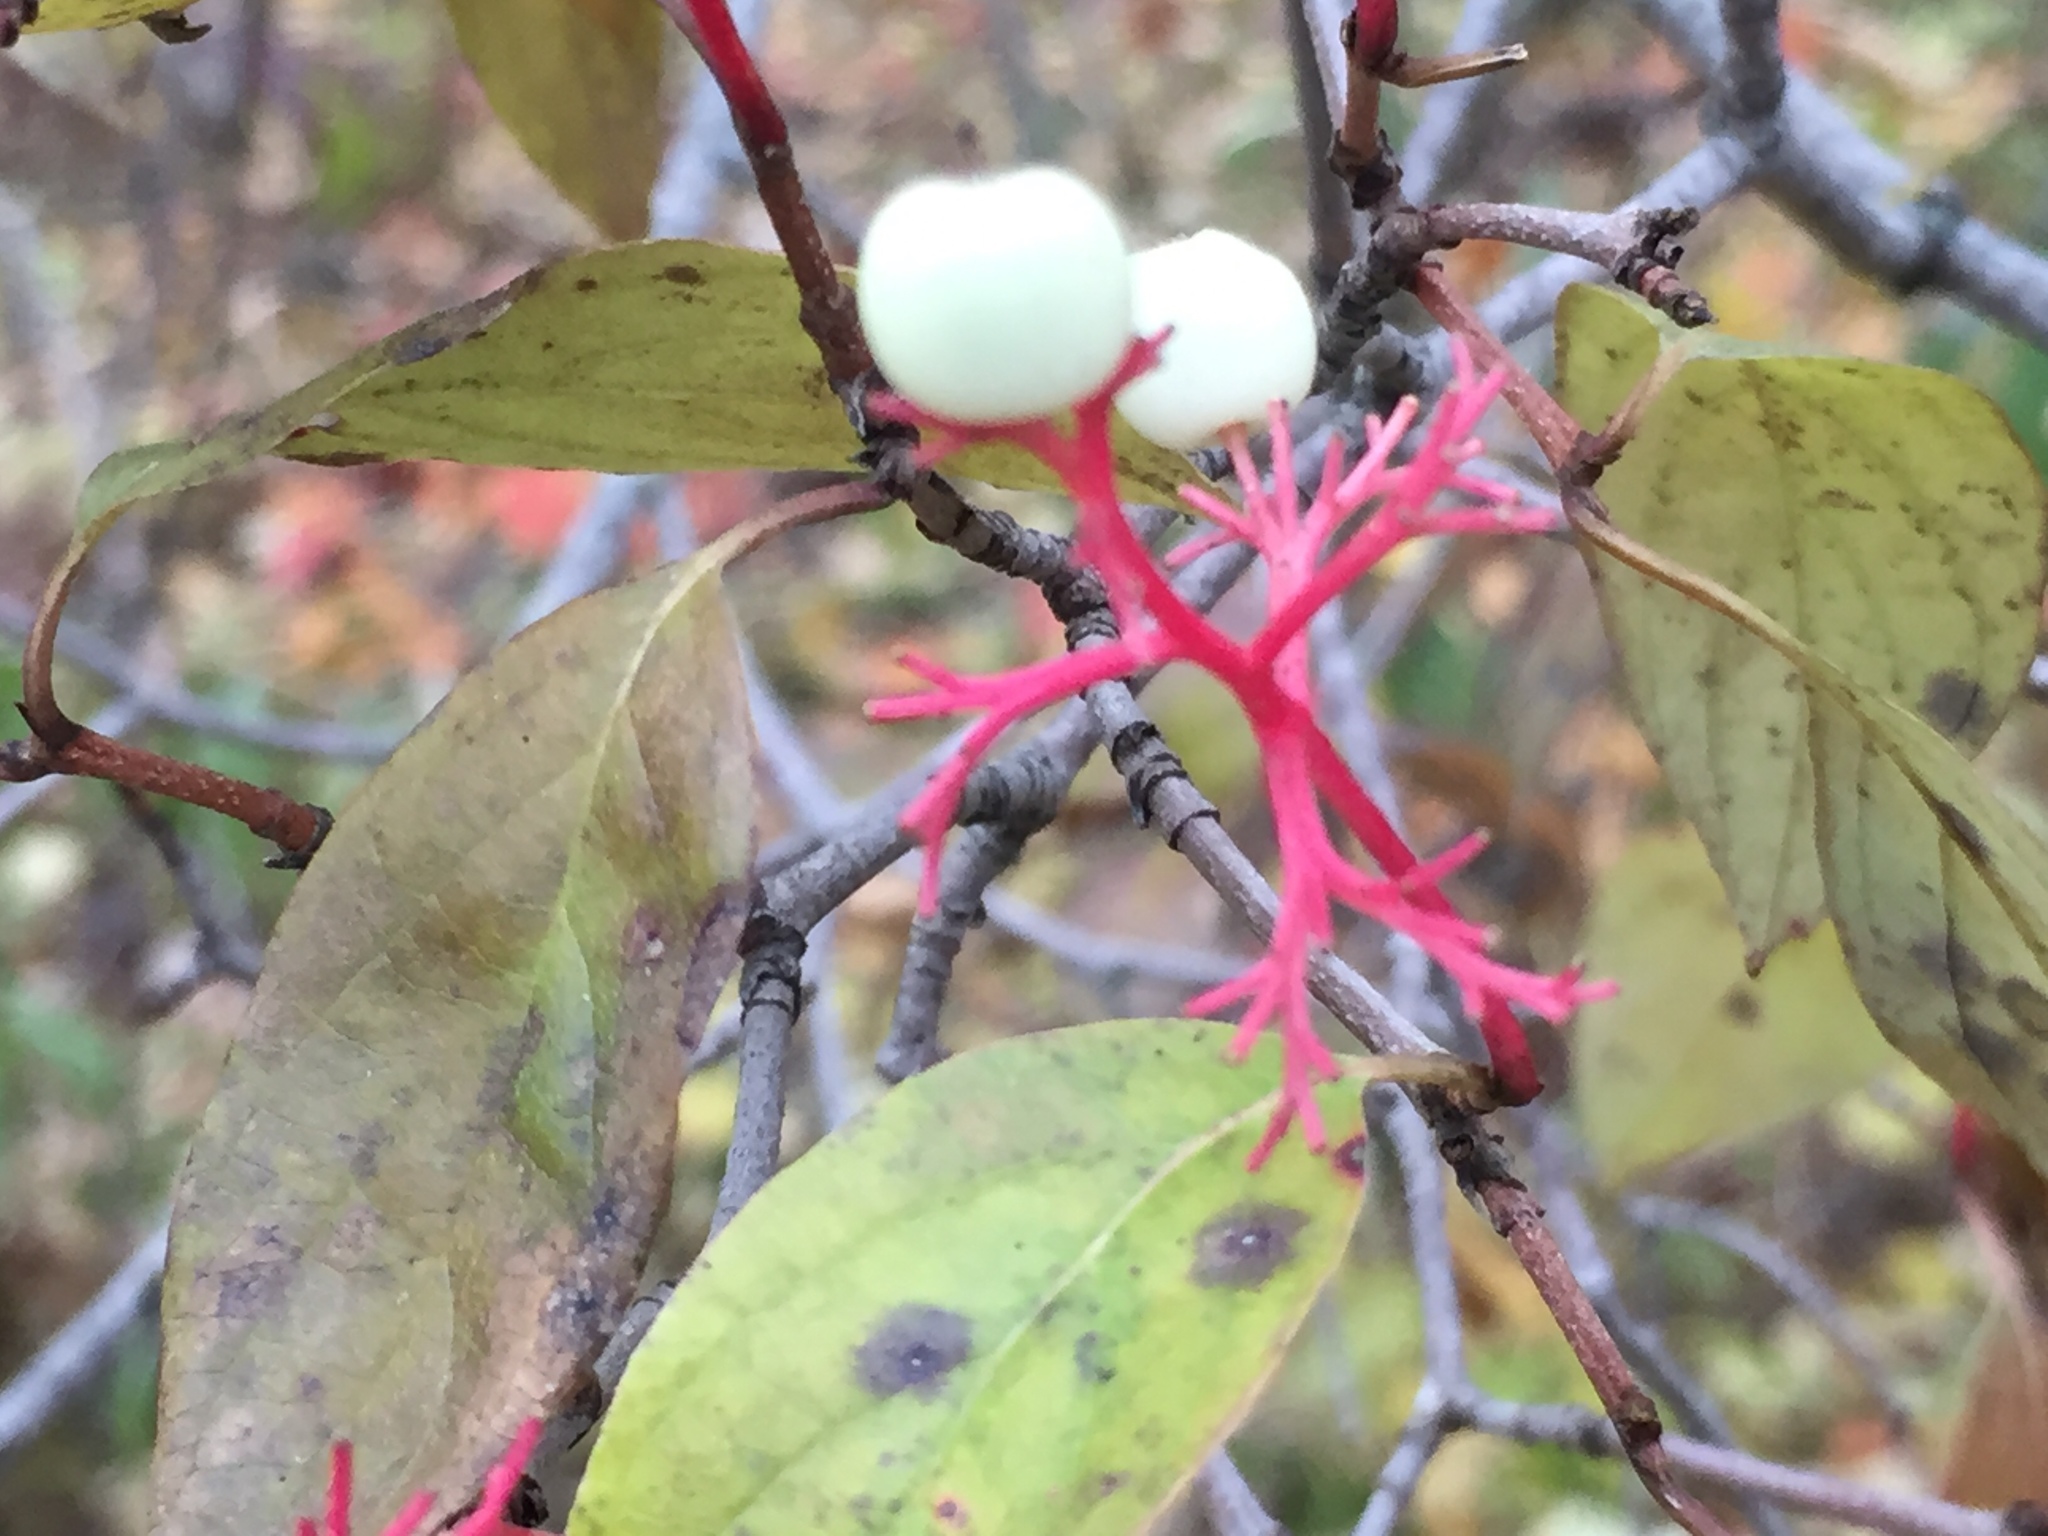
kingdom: Plantae
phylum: Tracheophyta
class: Magnoliopsida
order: Cornales
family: Cornaceae
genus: Cornus
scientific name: Cornus racemosa
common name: Panicled dogwood
